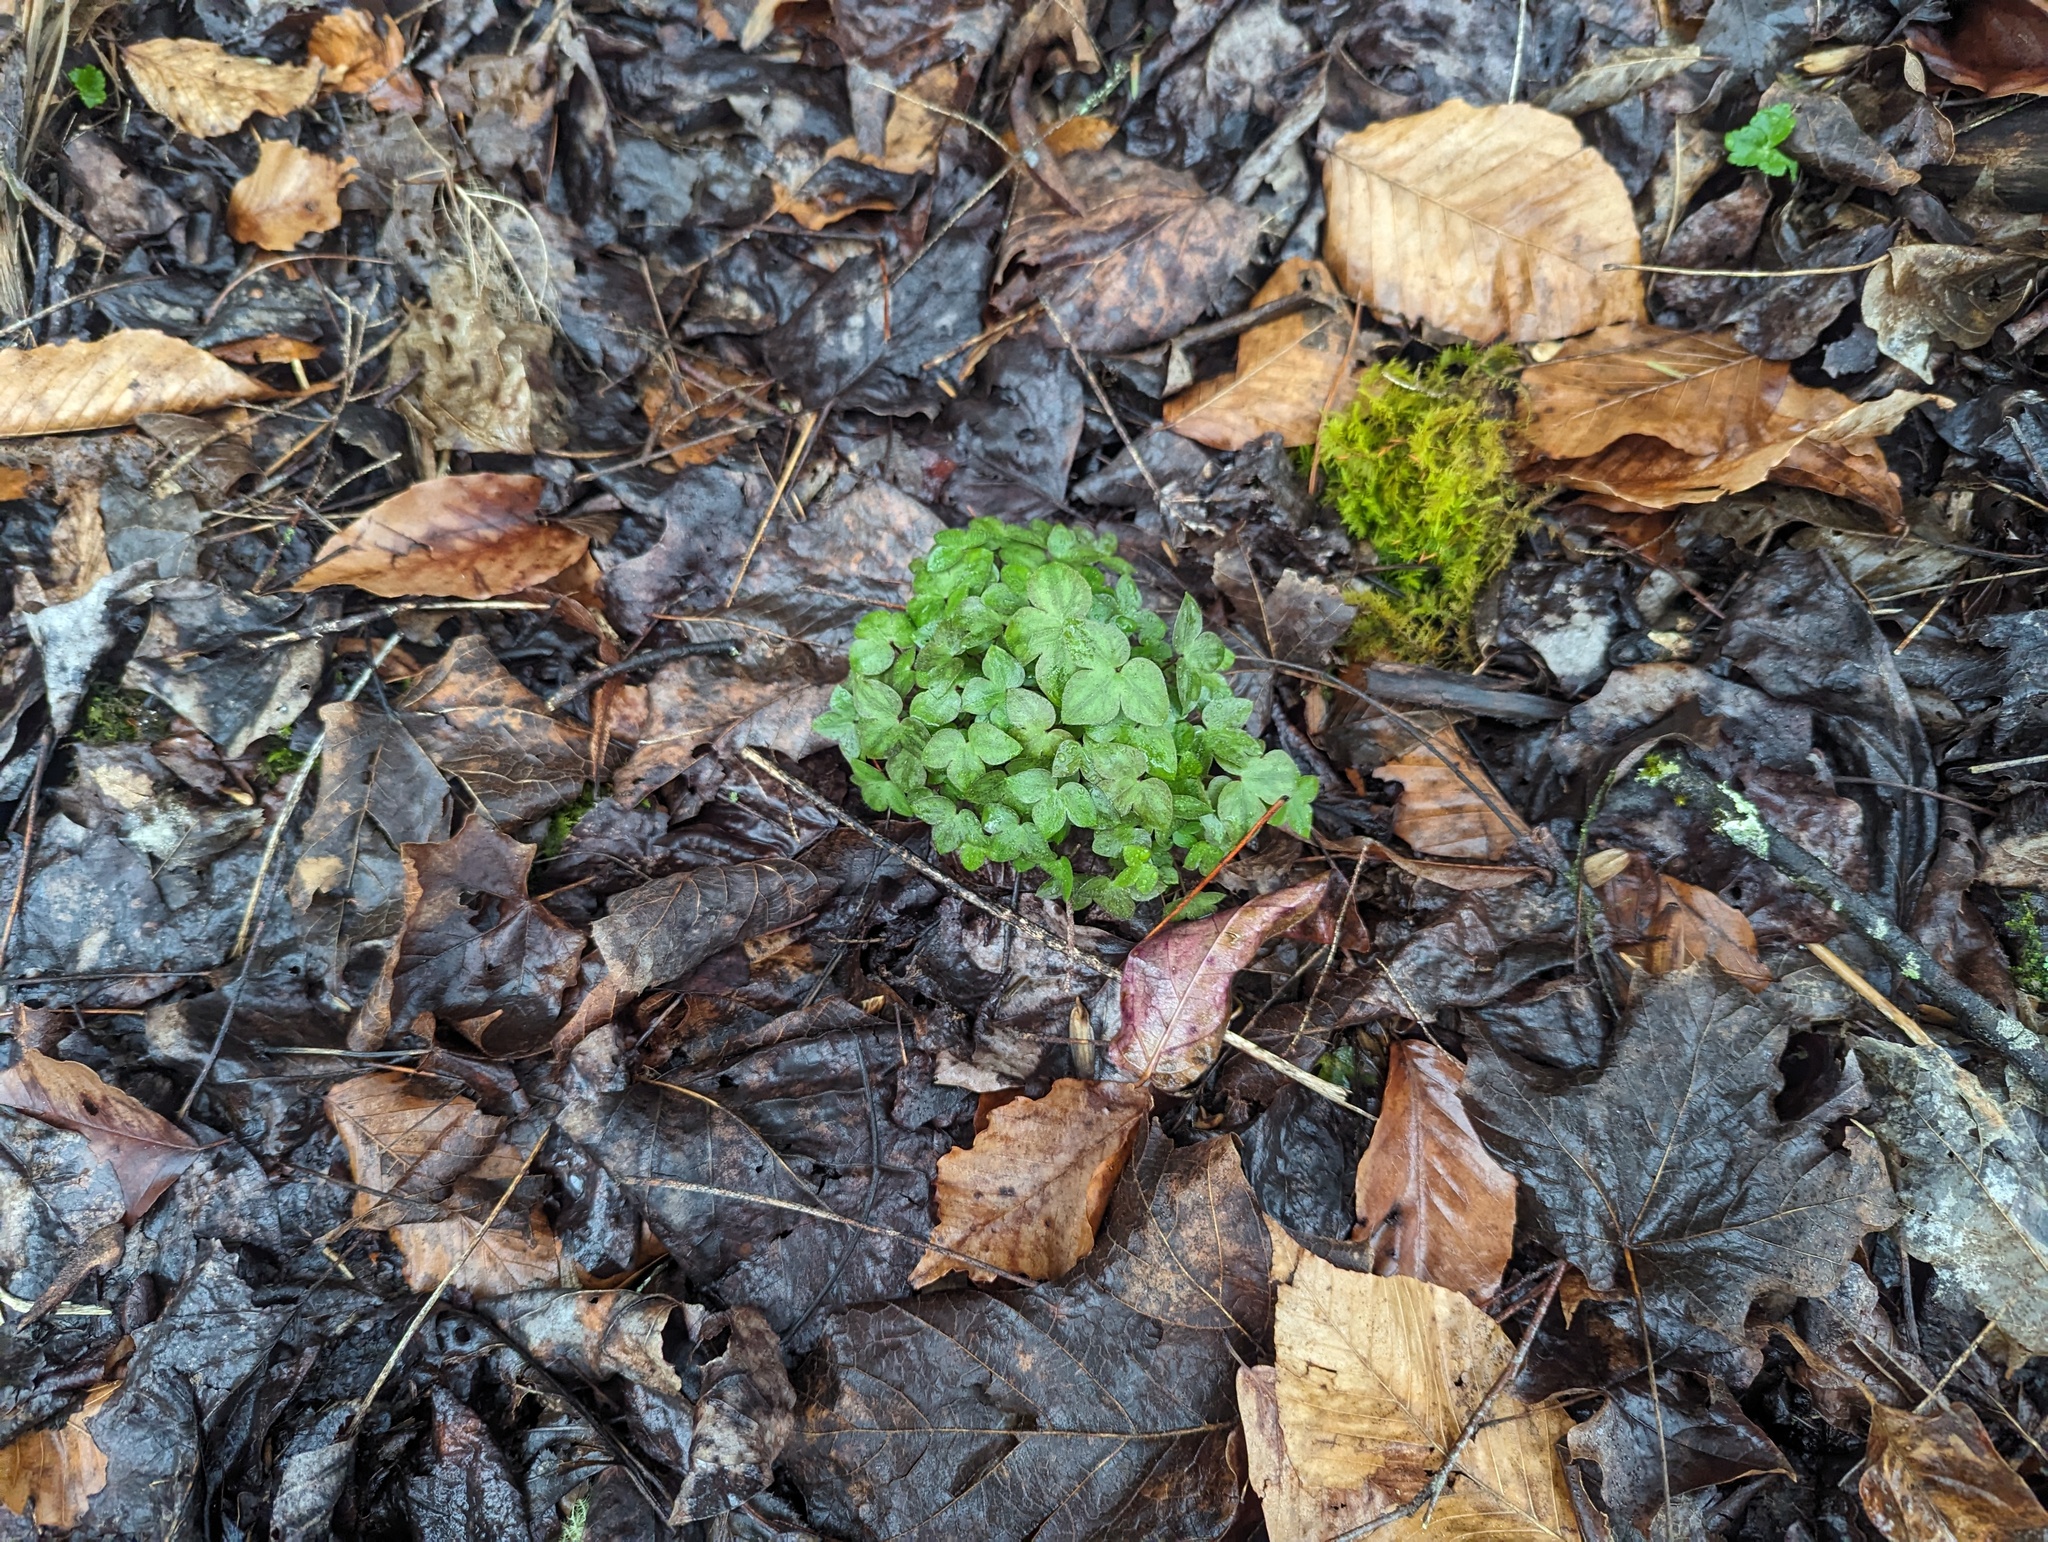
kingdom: Plantae
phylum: Tracheophyta
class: Magnoliopsida
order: Ranunculales
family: Ranunculaceae
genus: Hepatica
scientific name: Hepatica acutiloba
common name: Sharp-lobed hepatica
